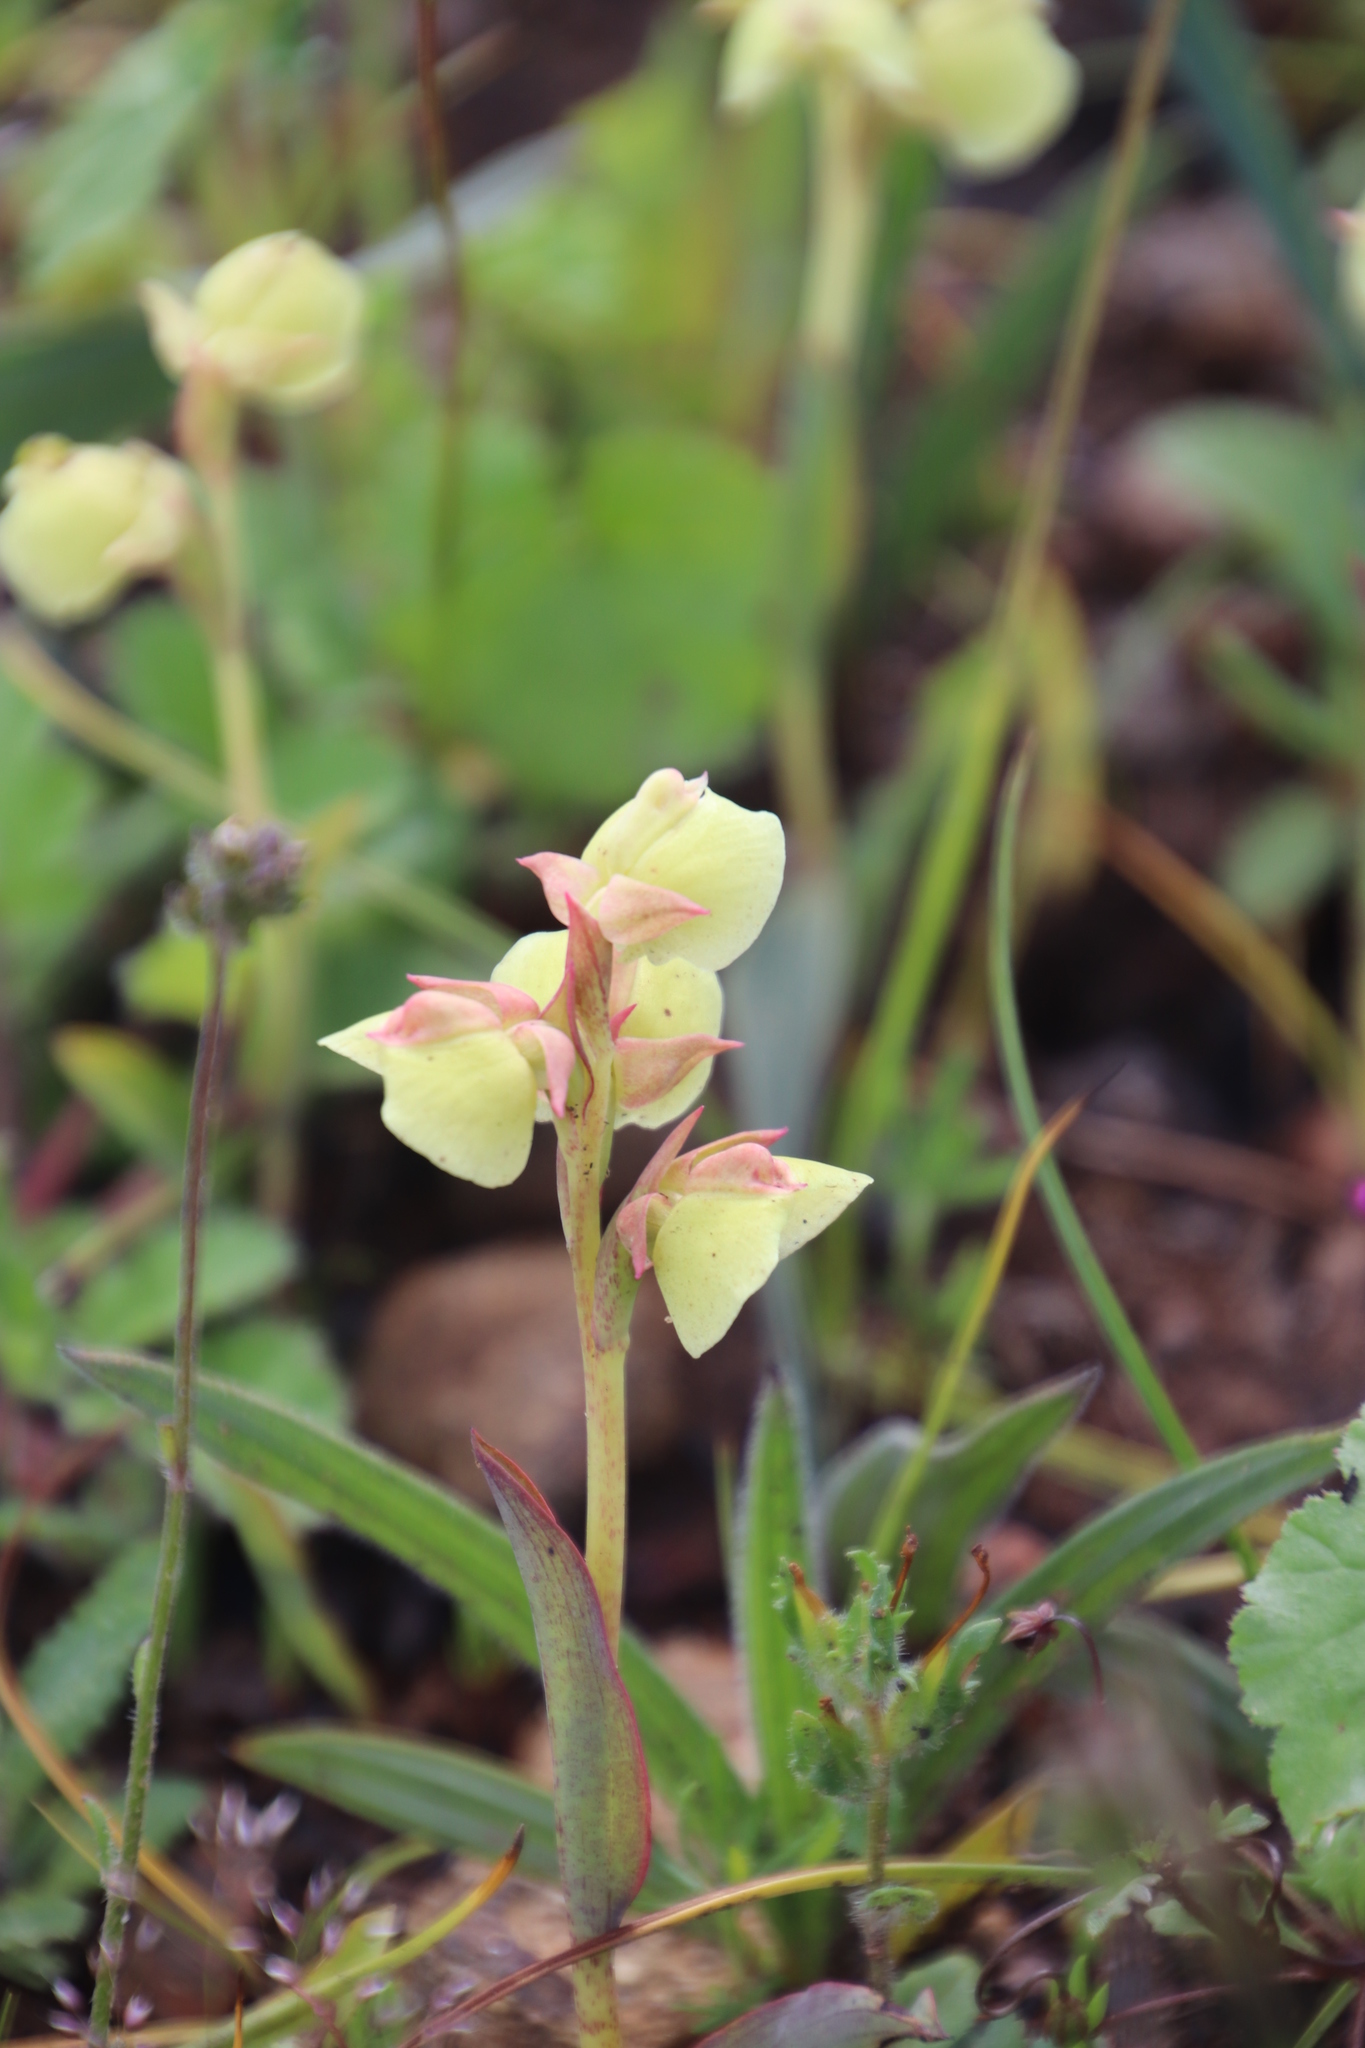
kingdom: Plantae
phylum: Tracheophyta
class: Liliopsida
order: Asparagales
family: Orchidaceae
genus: Pterygodium
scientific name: Pterygodium catholicum
